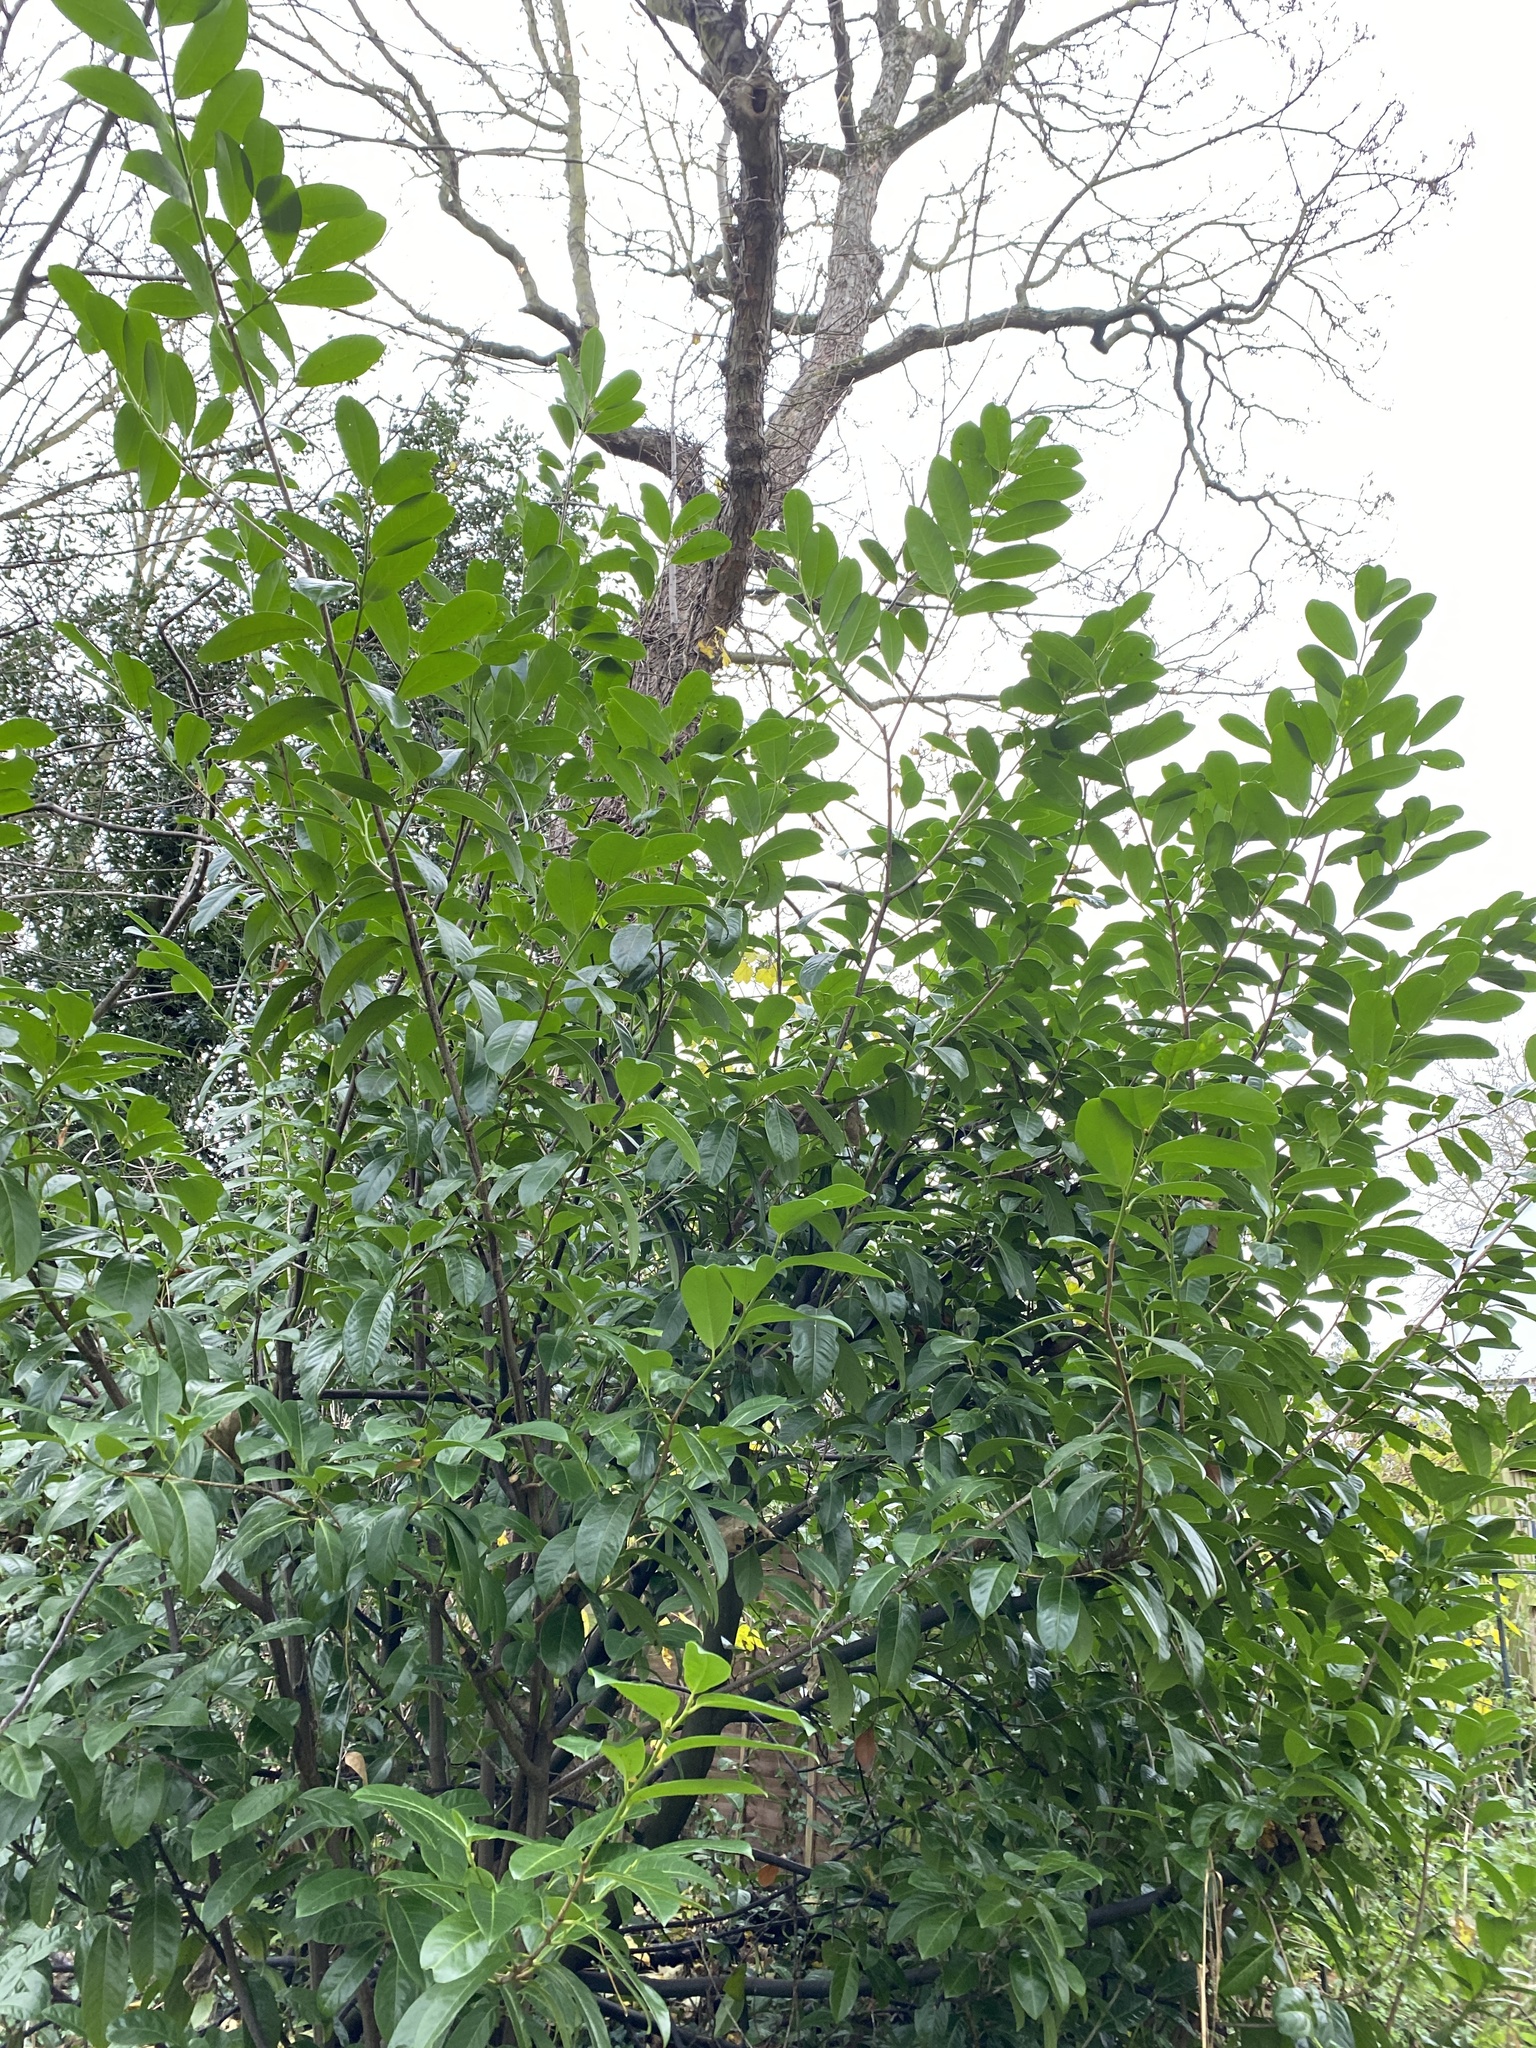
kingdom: Plantae
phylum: Tracheophyta
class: Magnoliopsida
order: Rosales
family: Rosaceae
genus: Prunus
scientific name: Prunus laurocerasus
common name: Cherry laurel
